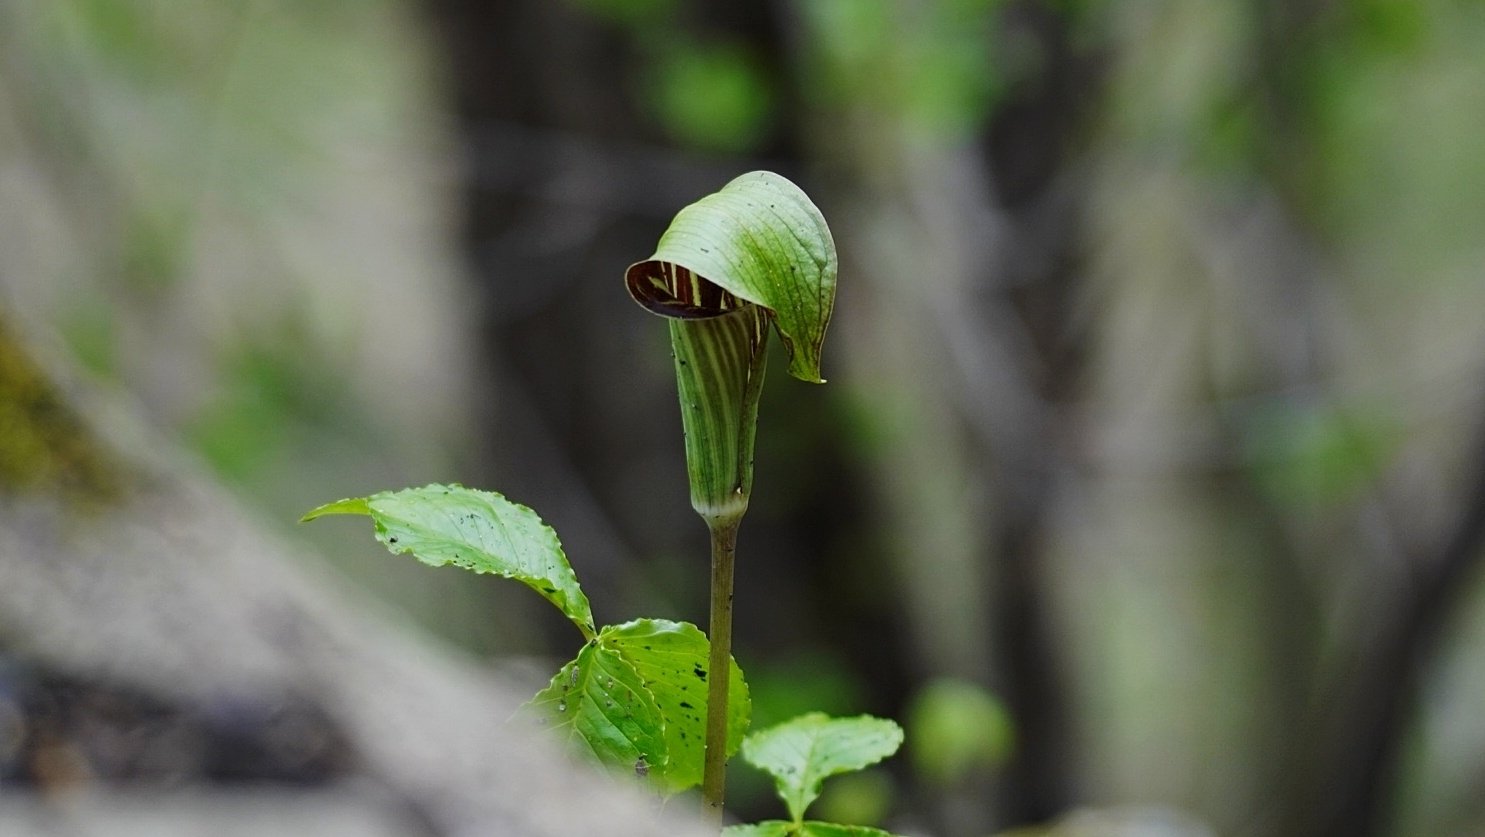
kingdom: Plantae
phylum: Tracheophyta
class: Liliopsida
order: Alismatales
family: Araceae
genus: Arisaema
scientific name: Arisaema triphyllum
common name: Jack-in-the-pulpit
